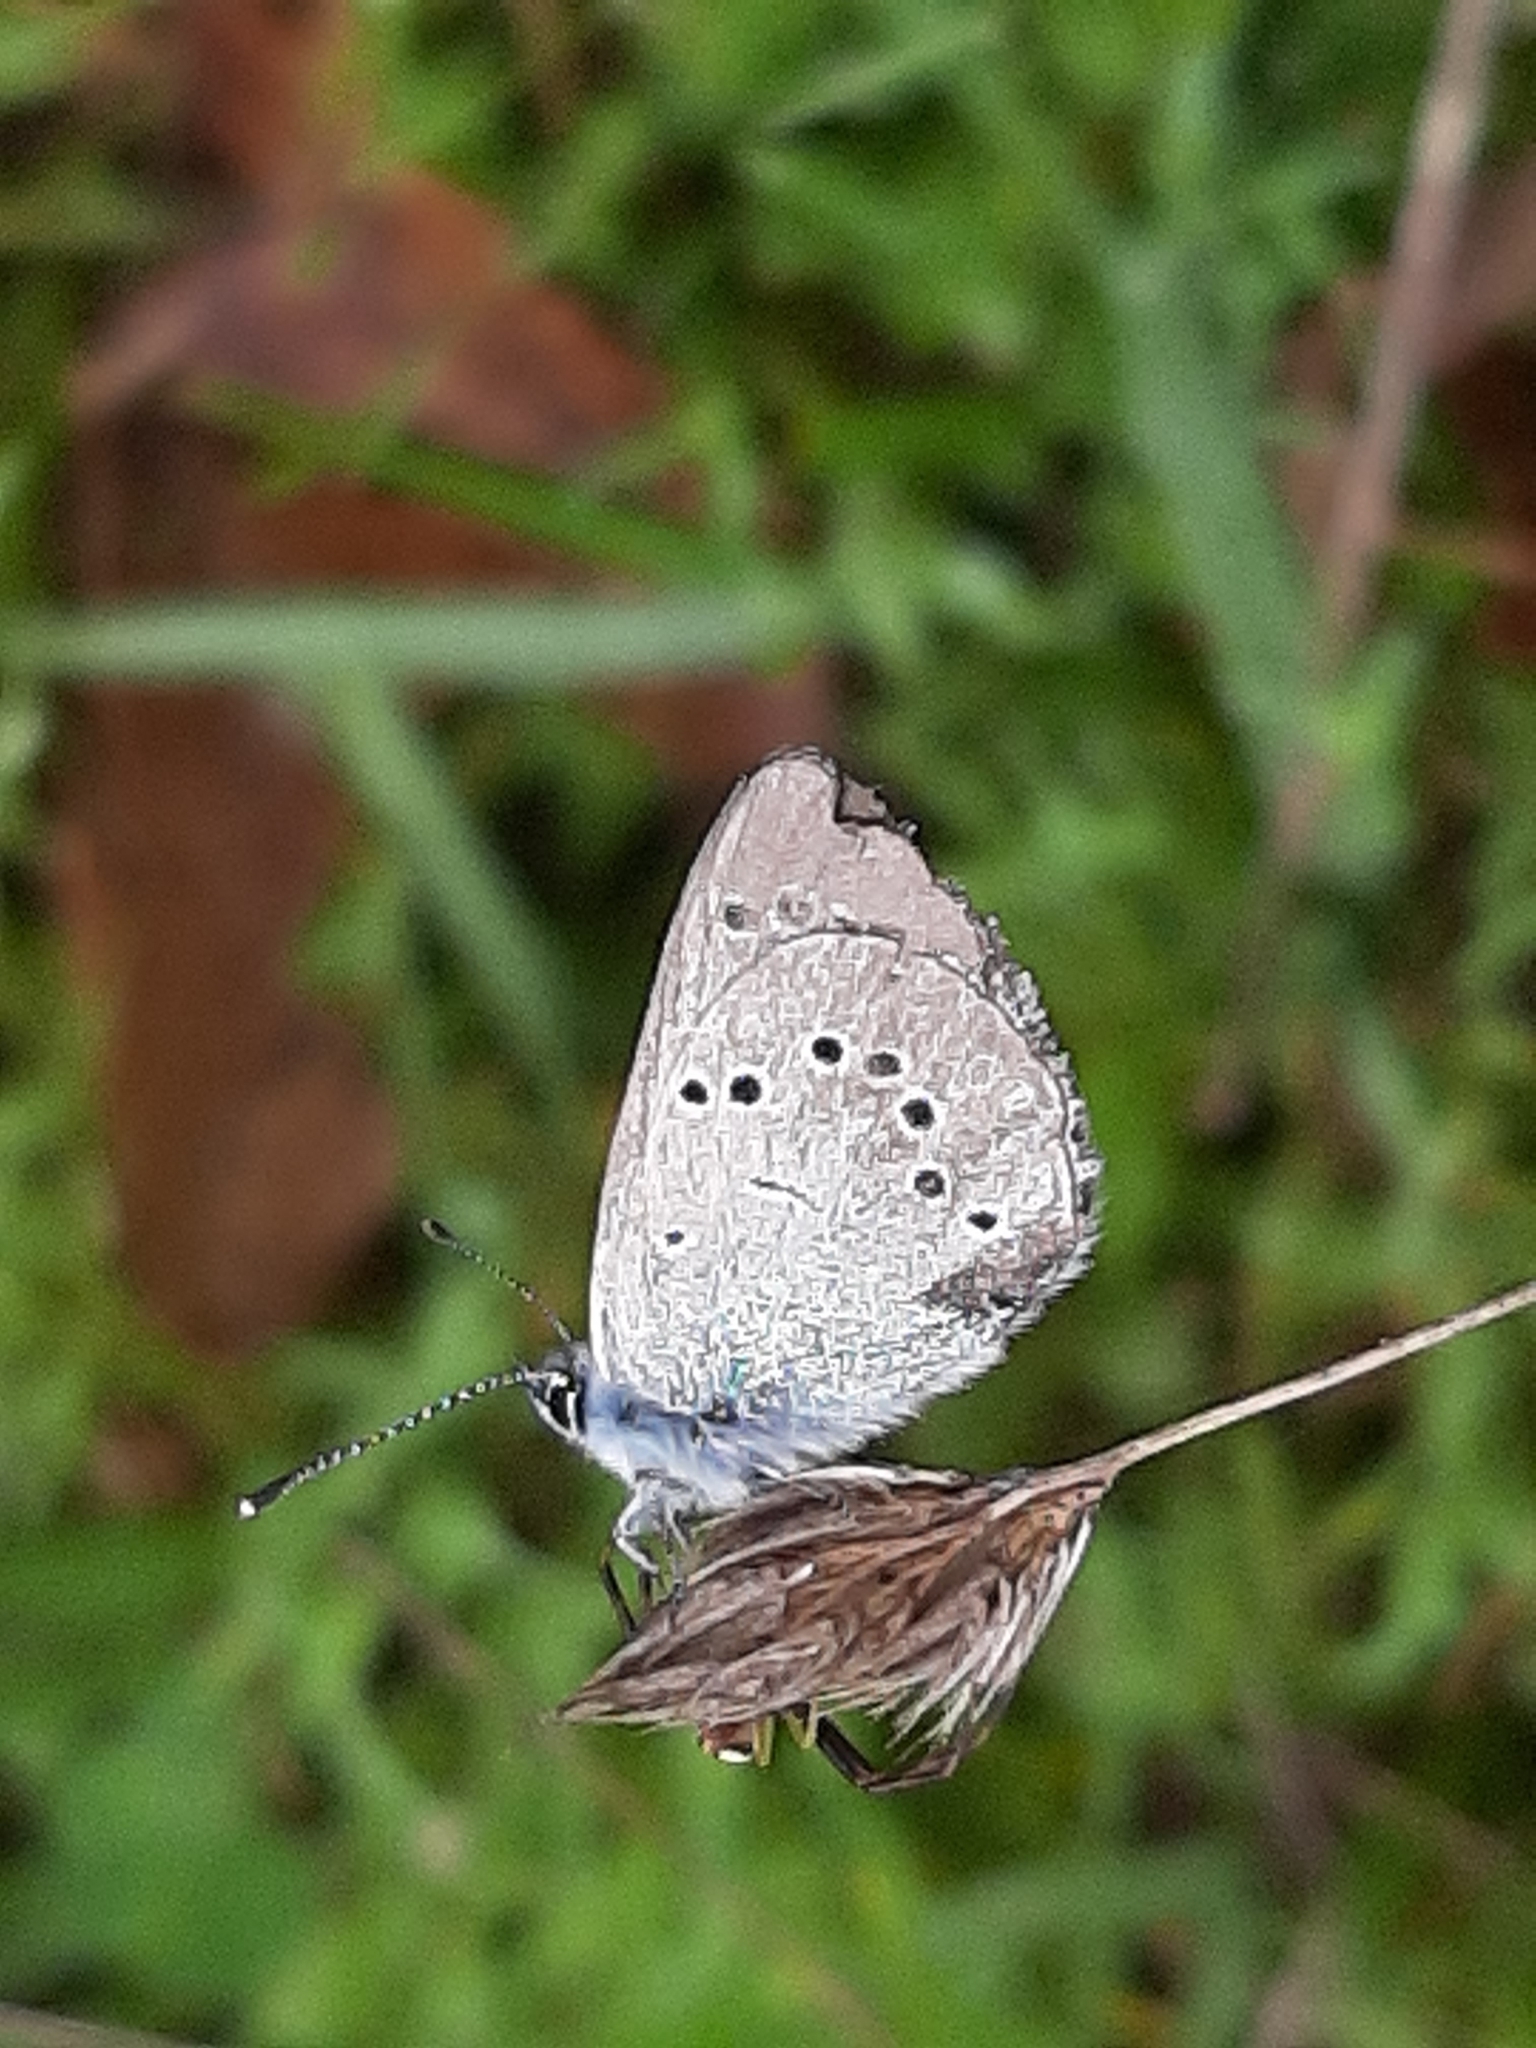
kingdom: Animalia
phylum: Arthropoda
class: Insecta
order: Lepidoptera
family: Lycaenidae
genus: Glaucopsyche
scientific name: Glaucopsyche lygdamus
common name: Silvery blue
